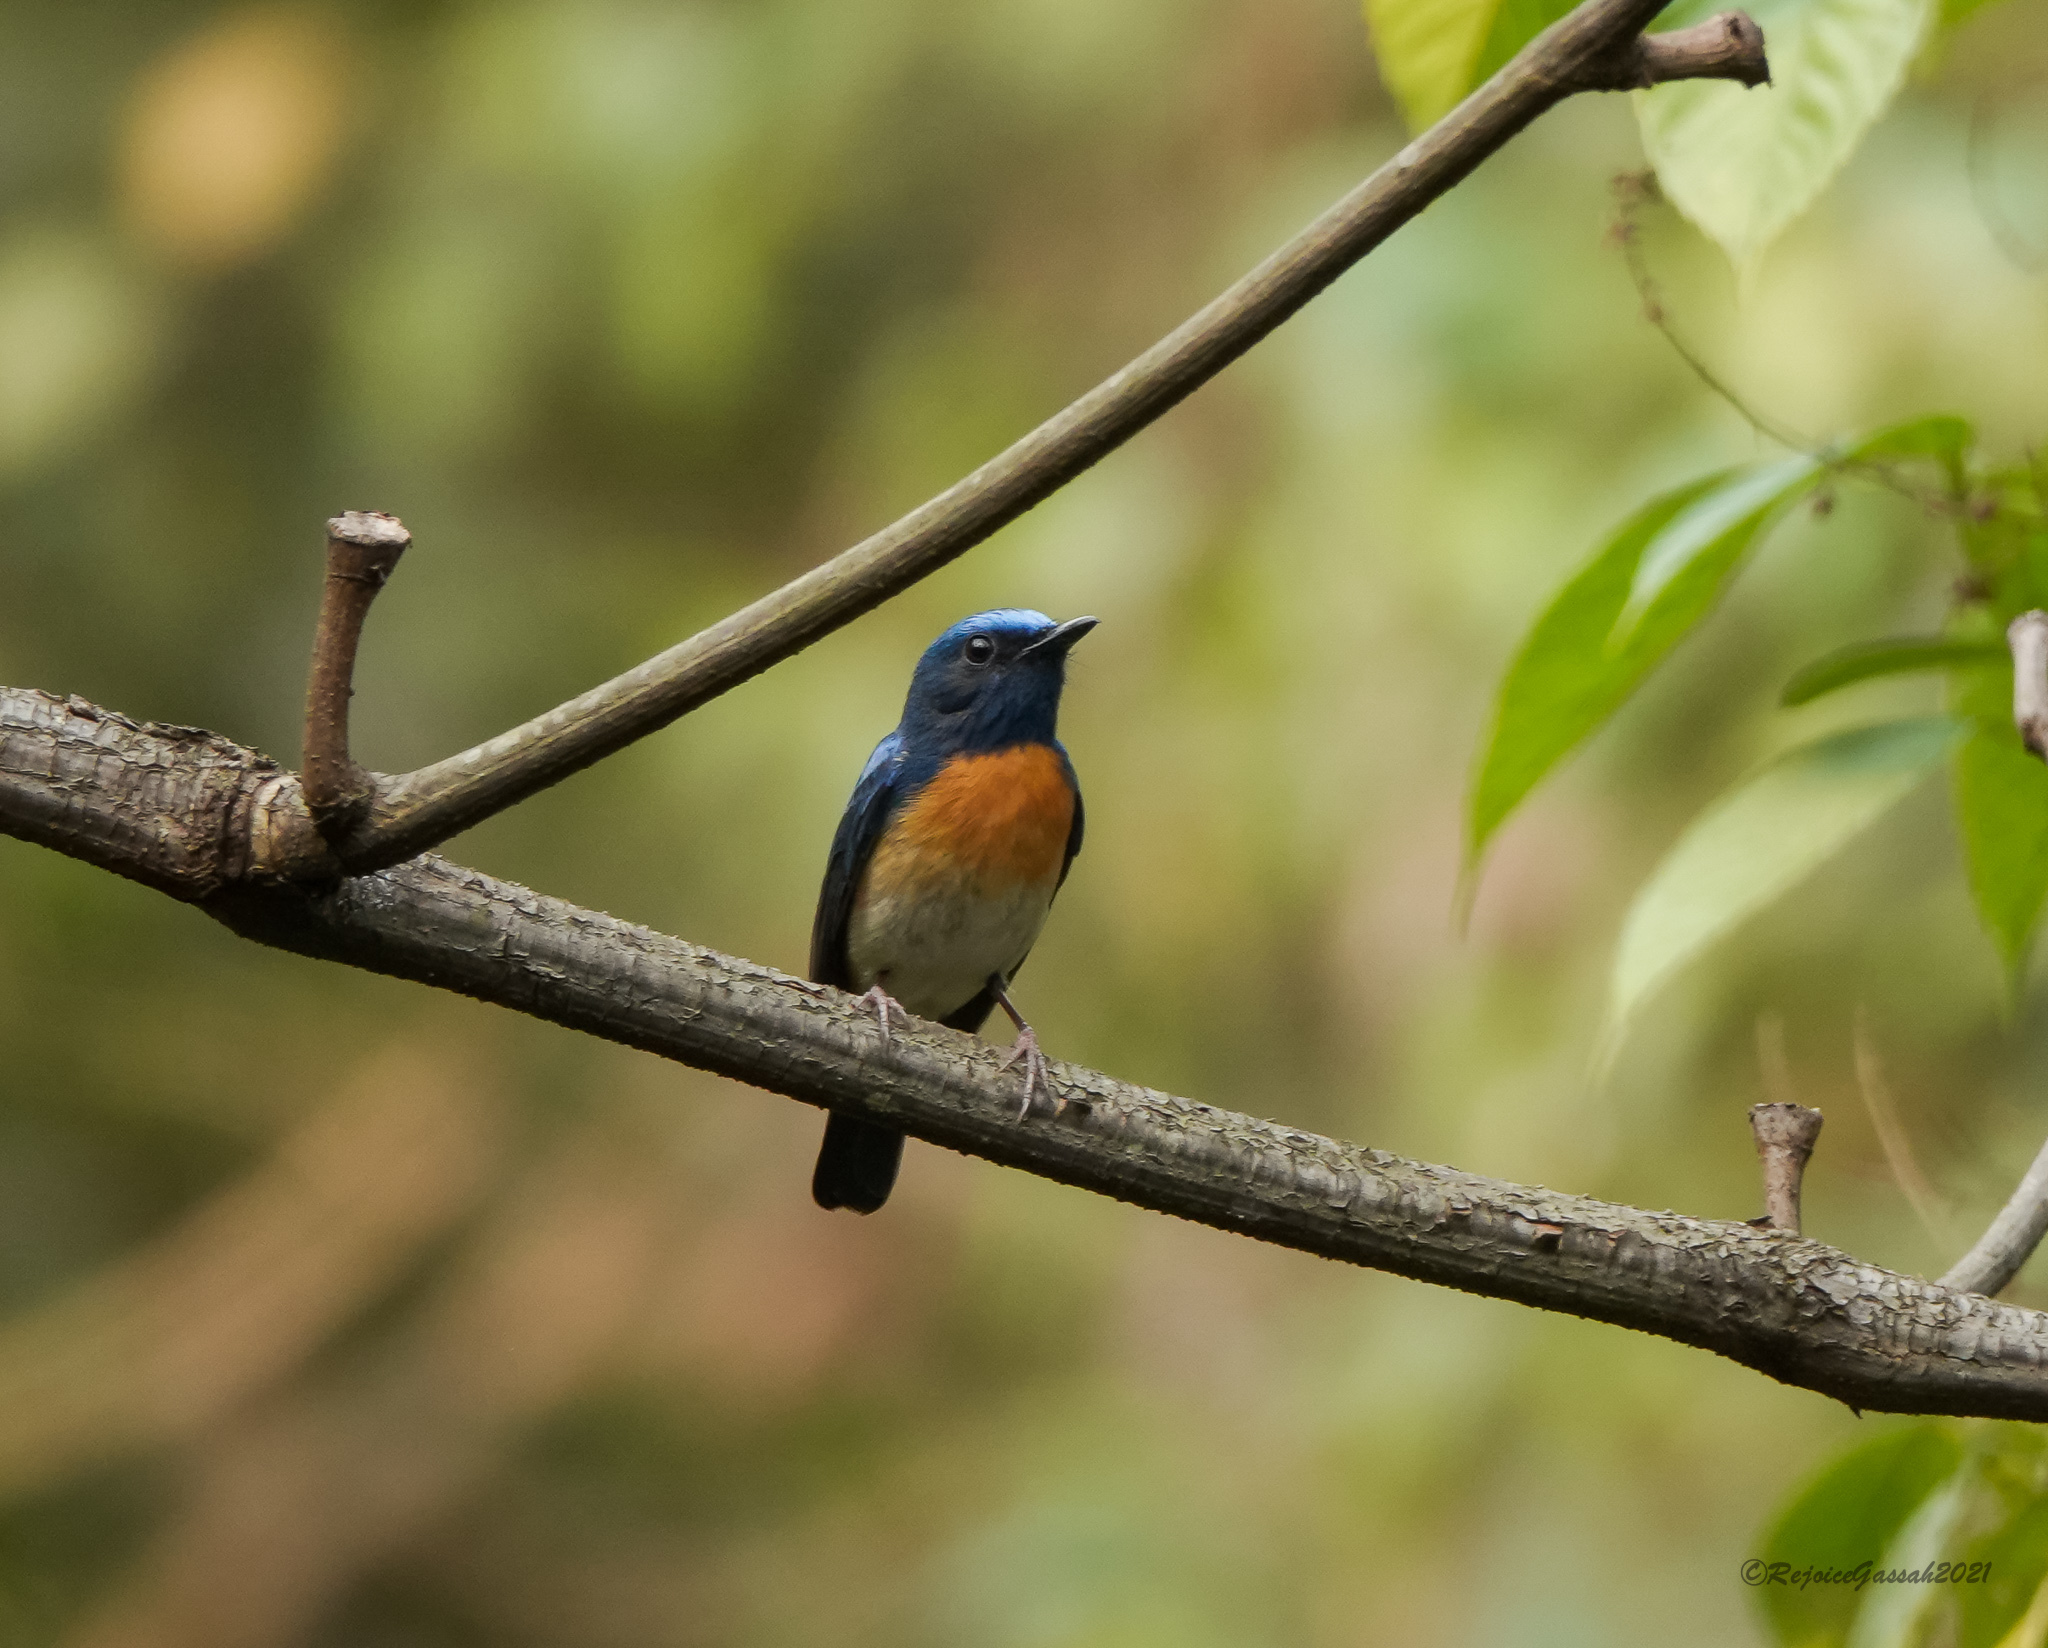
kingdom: Animalia
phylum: Chordata
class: Aves
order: Passeriformes
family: Muscicapidae
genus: Cyornis
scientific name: Cyornis rubeculoides
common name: Blue-throated blue flycatcher
